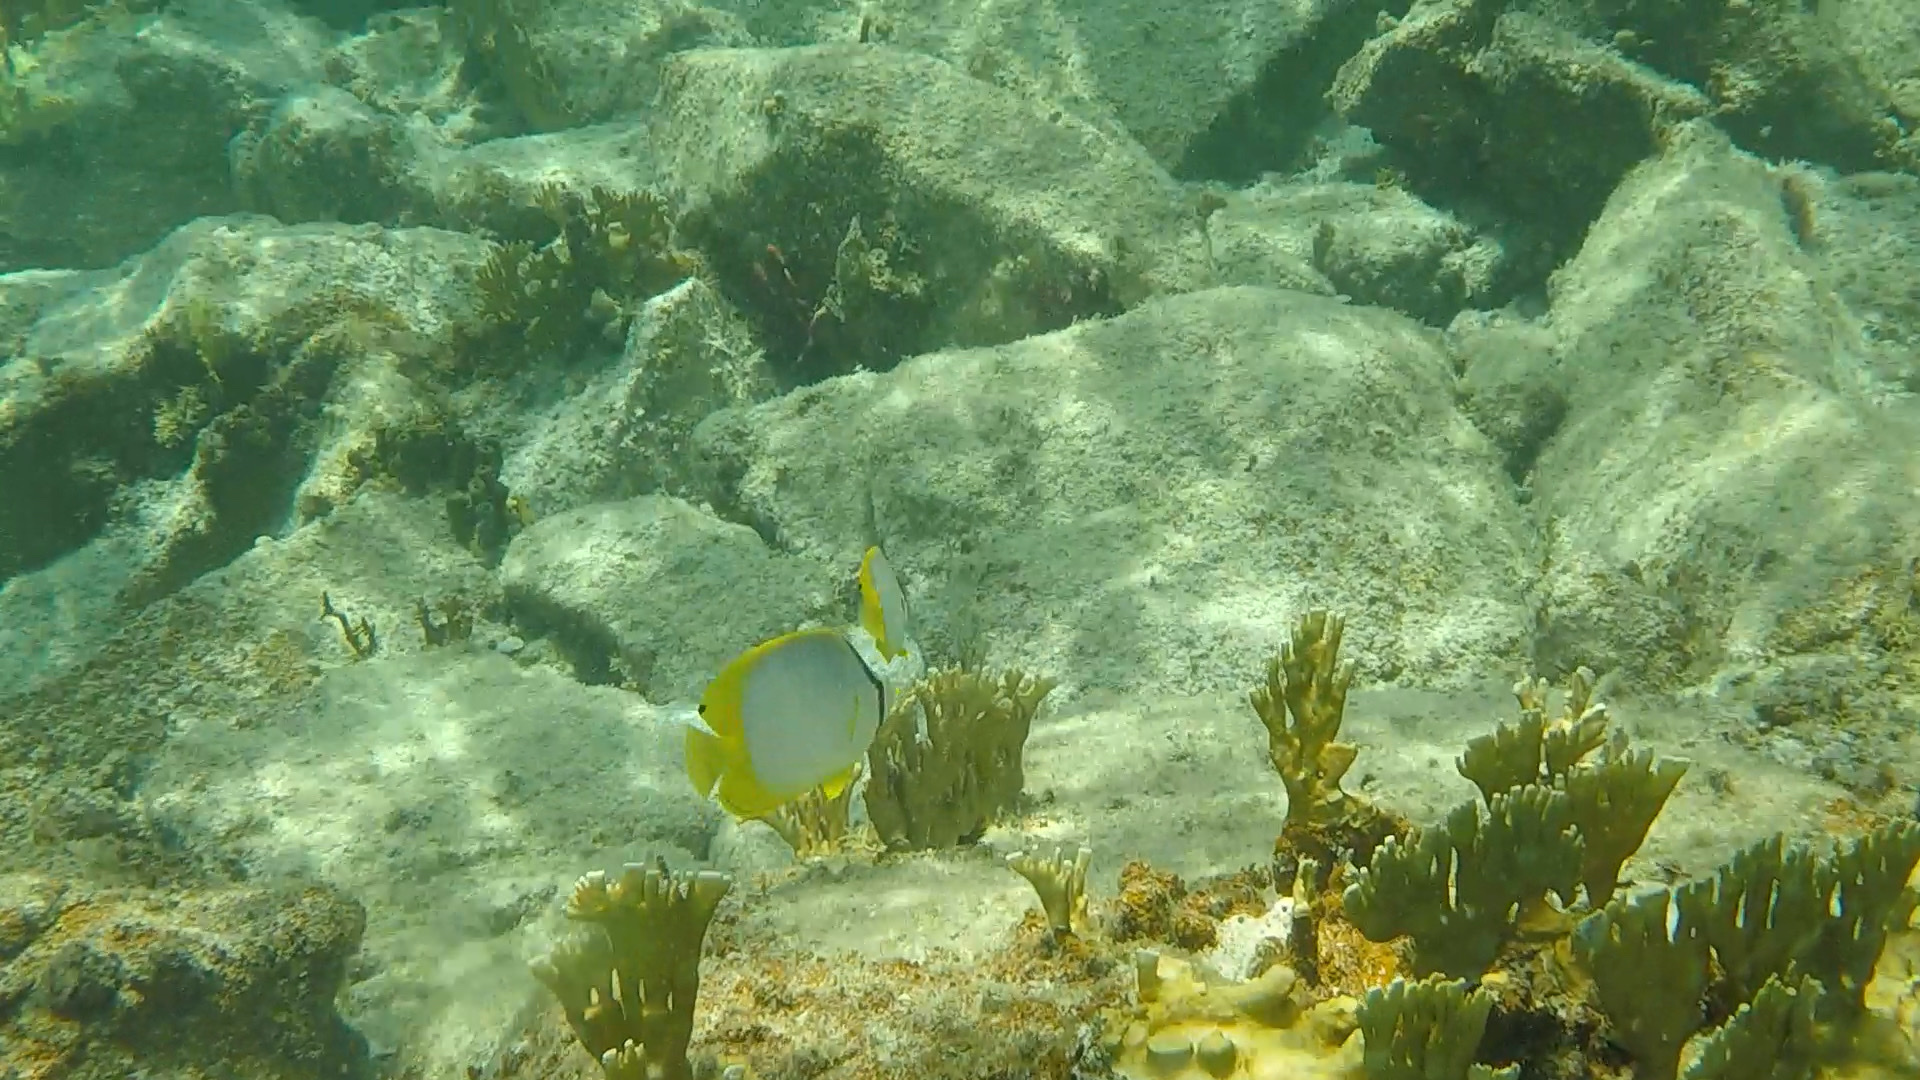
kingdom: Animalia
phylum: Chordata
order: Perciformes
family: Chaetodontidae
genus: Chaetodon
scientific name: Chaetodon ocellatus
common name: Spotfin butterflyfish
